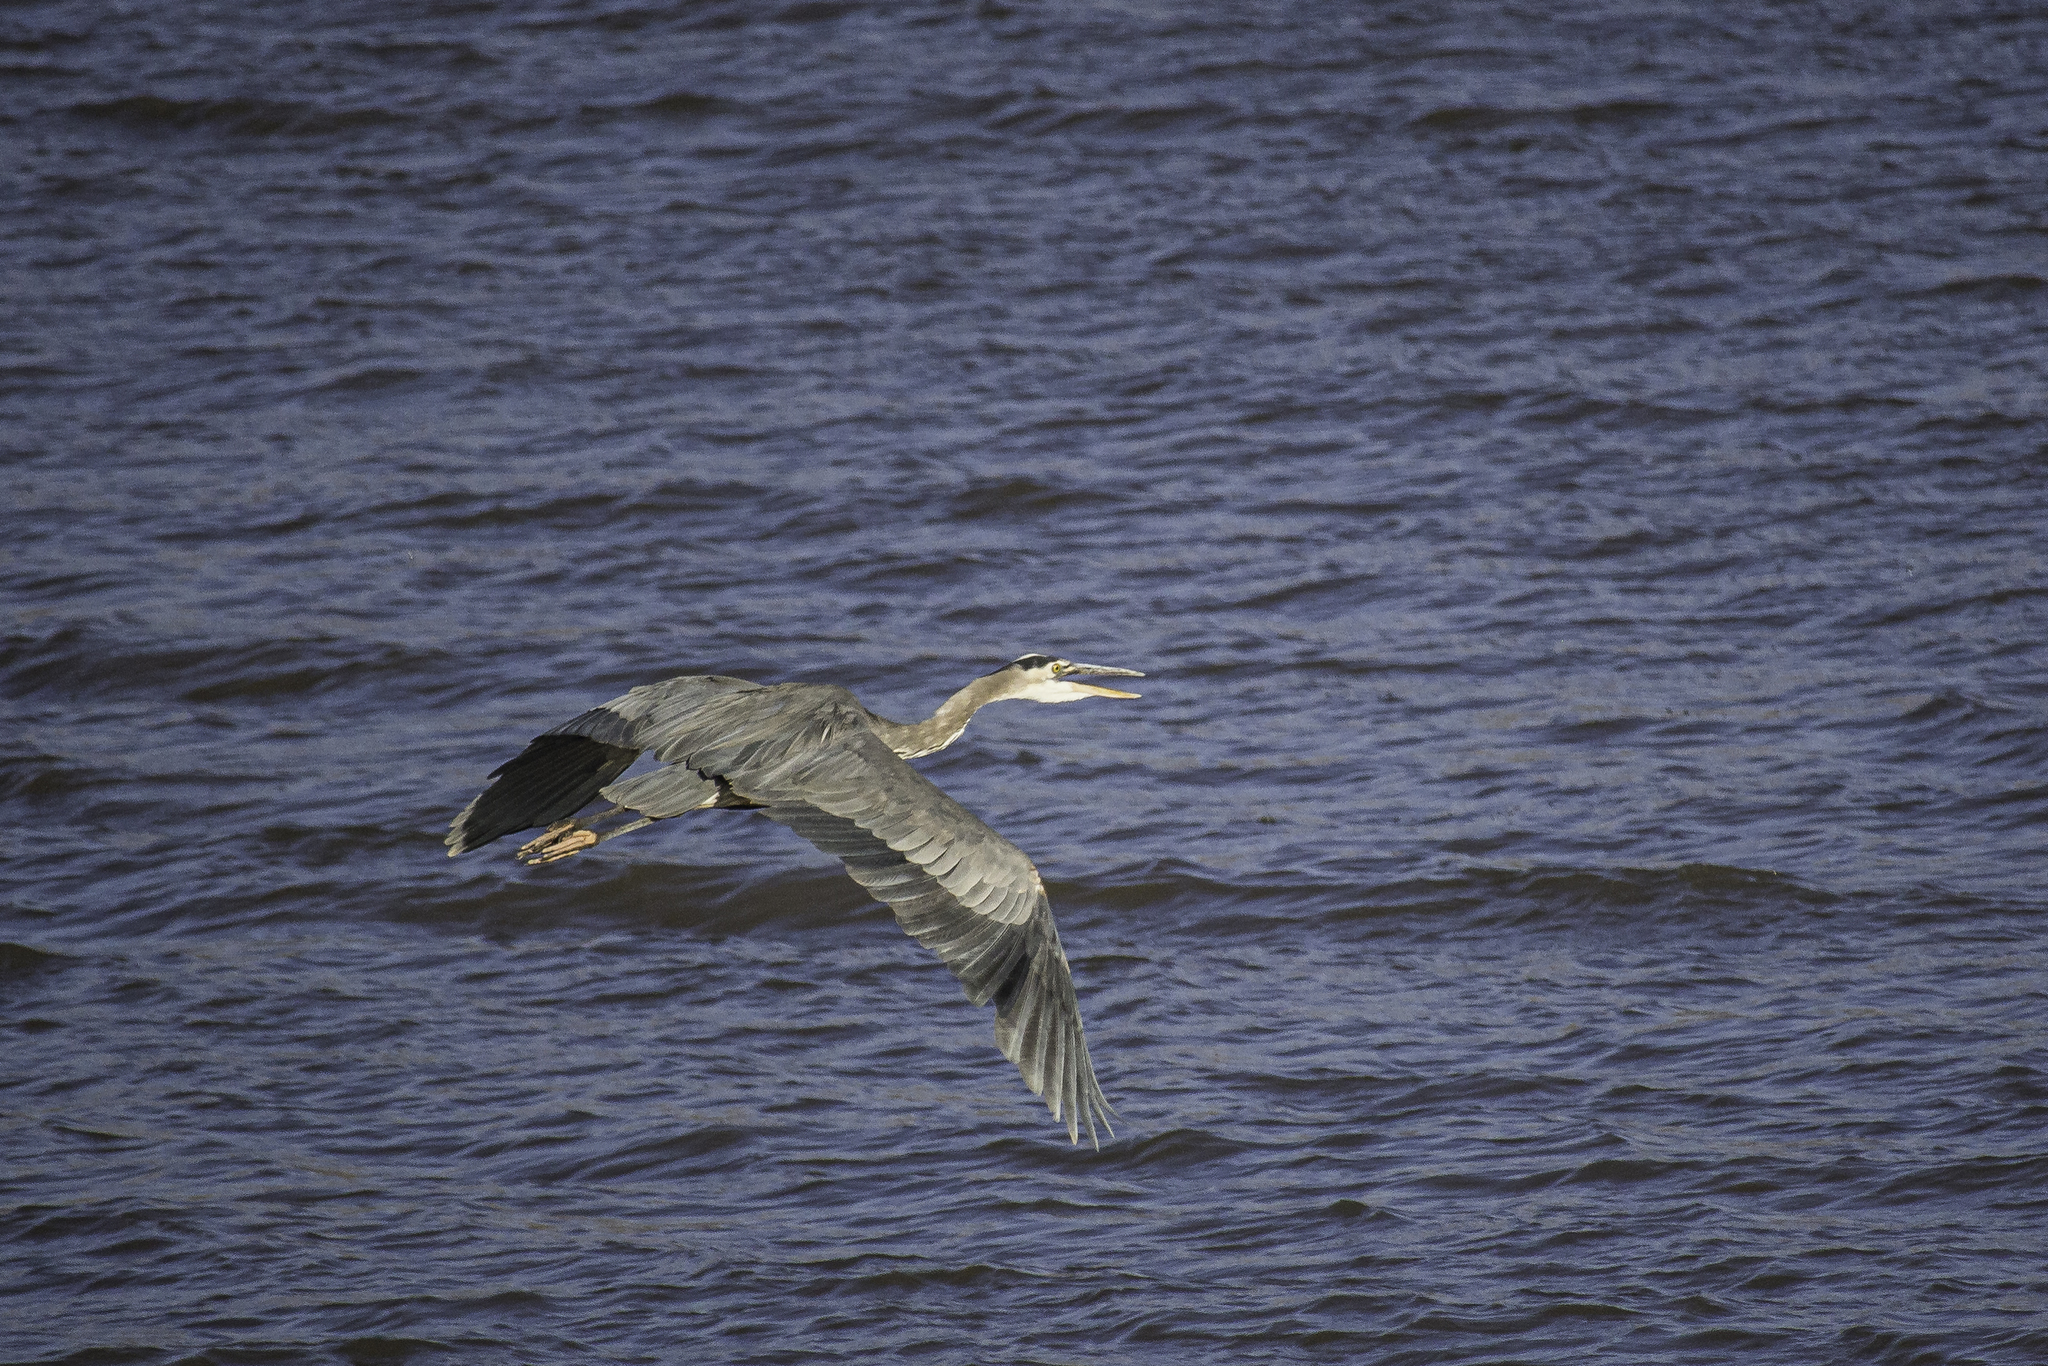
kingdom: Animalia
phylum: Chordata
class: Aves
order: Pelecaniformes
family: Ardeidae
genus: Ardea
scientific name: Ardea herodias
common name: Great blue heron
